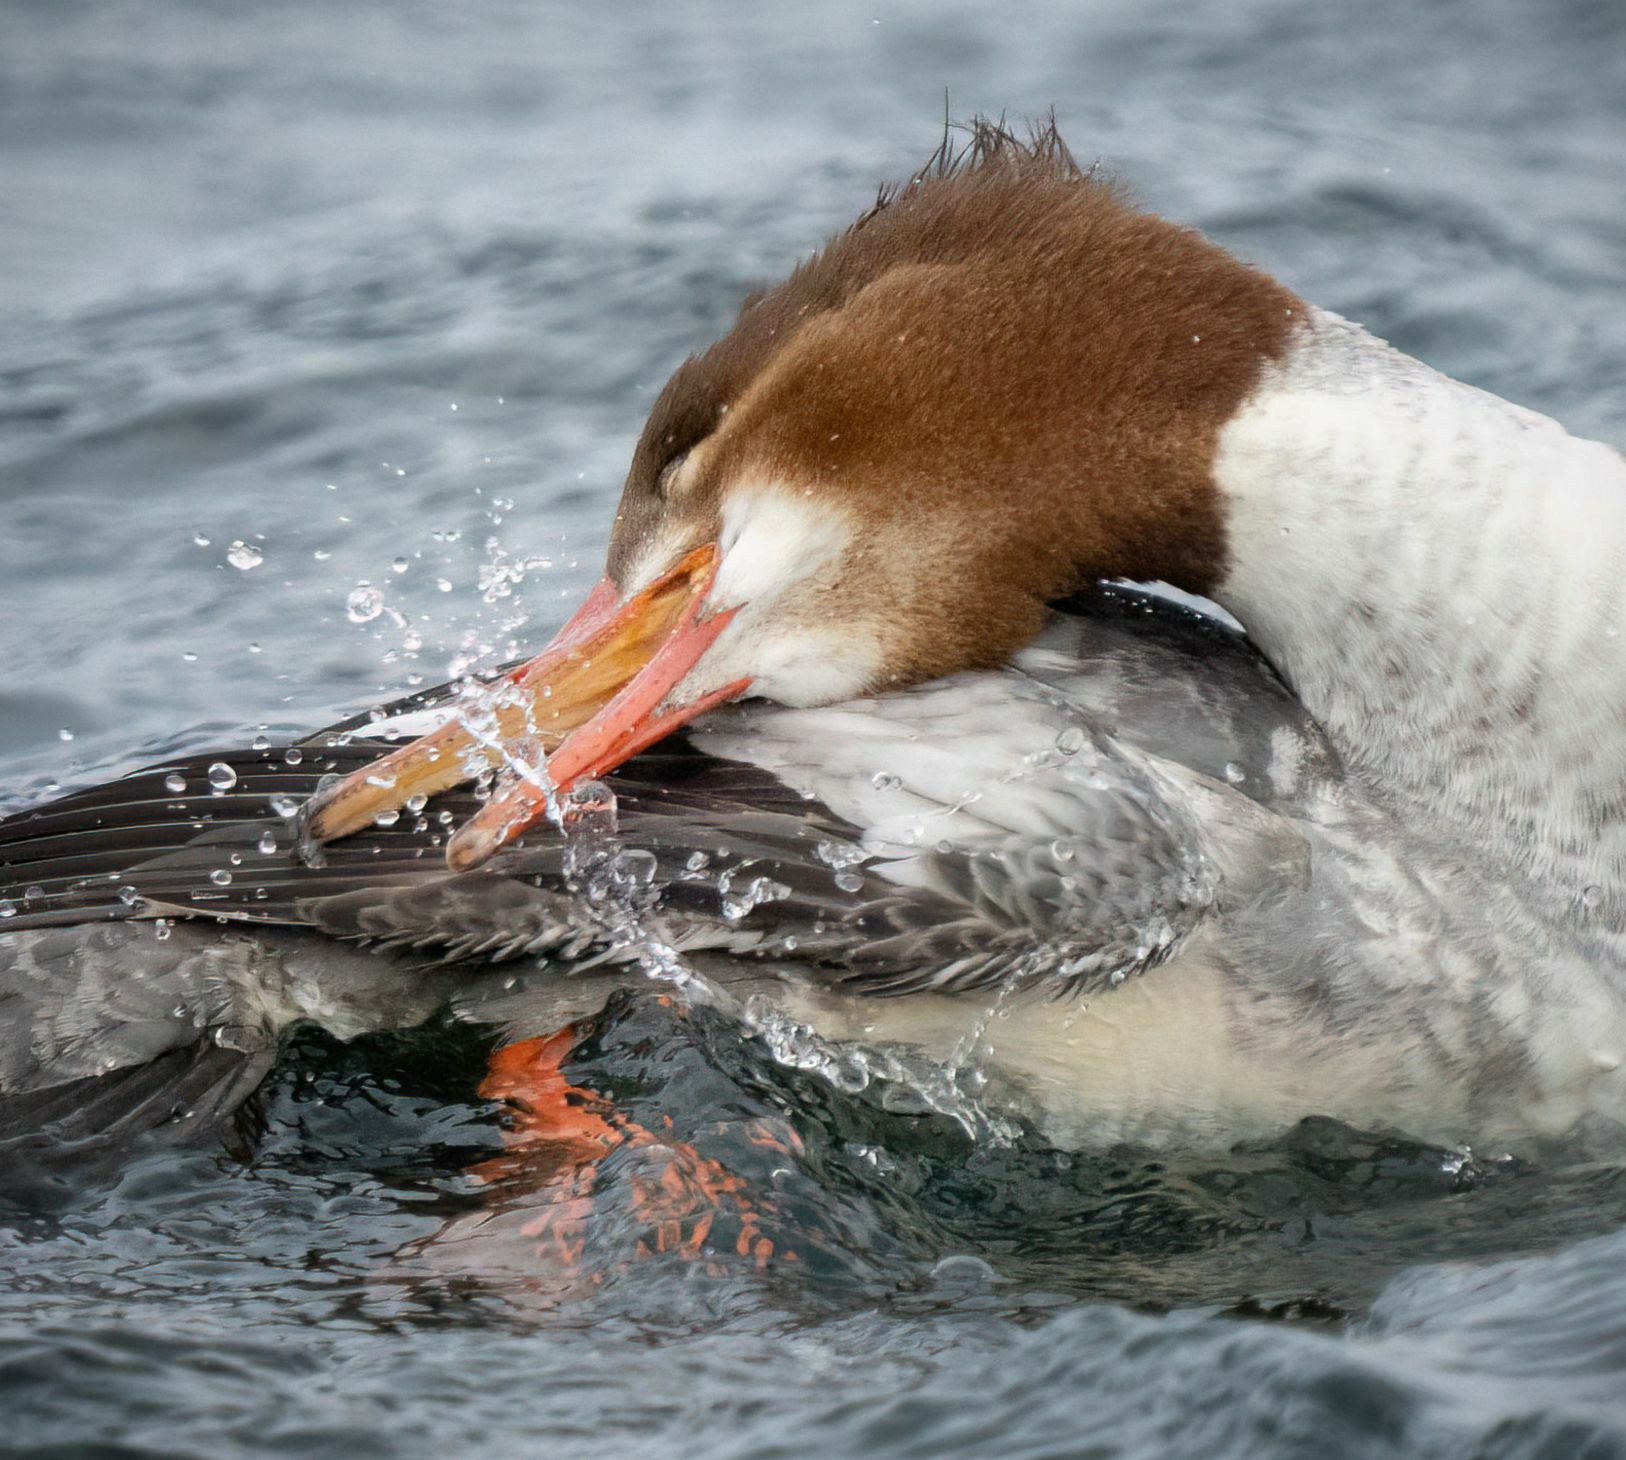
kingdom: Animalia
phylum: Chordata
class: Aves
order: Anseriformes
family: Anatidae
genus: Mergus
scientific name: Mergus merganser
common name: Common merganser
